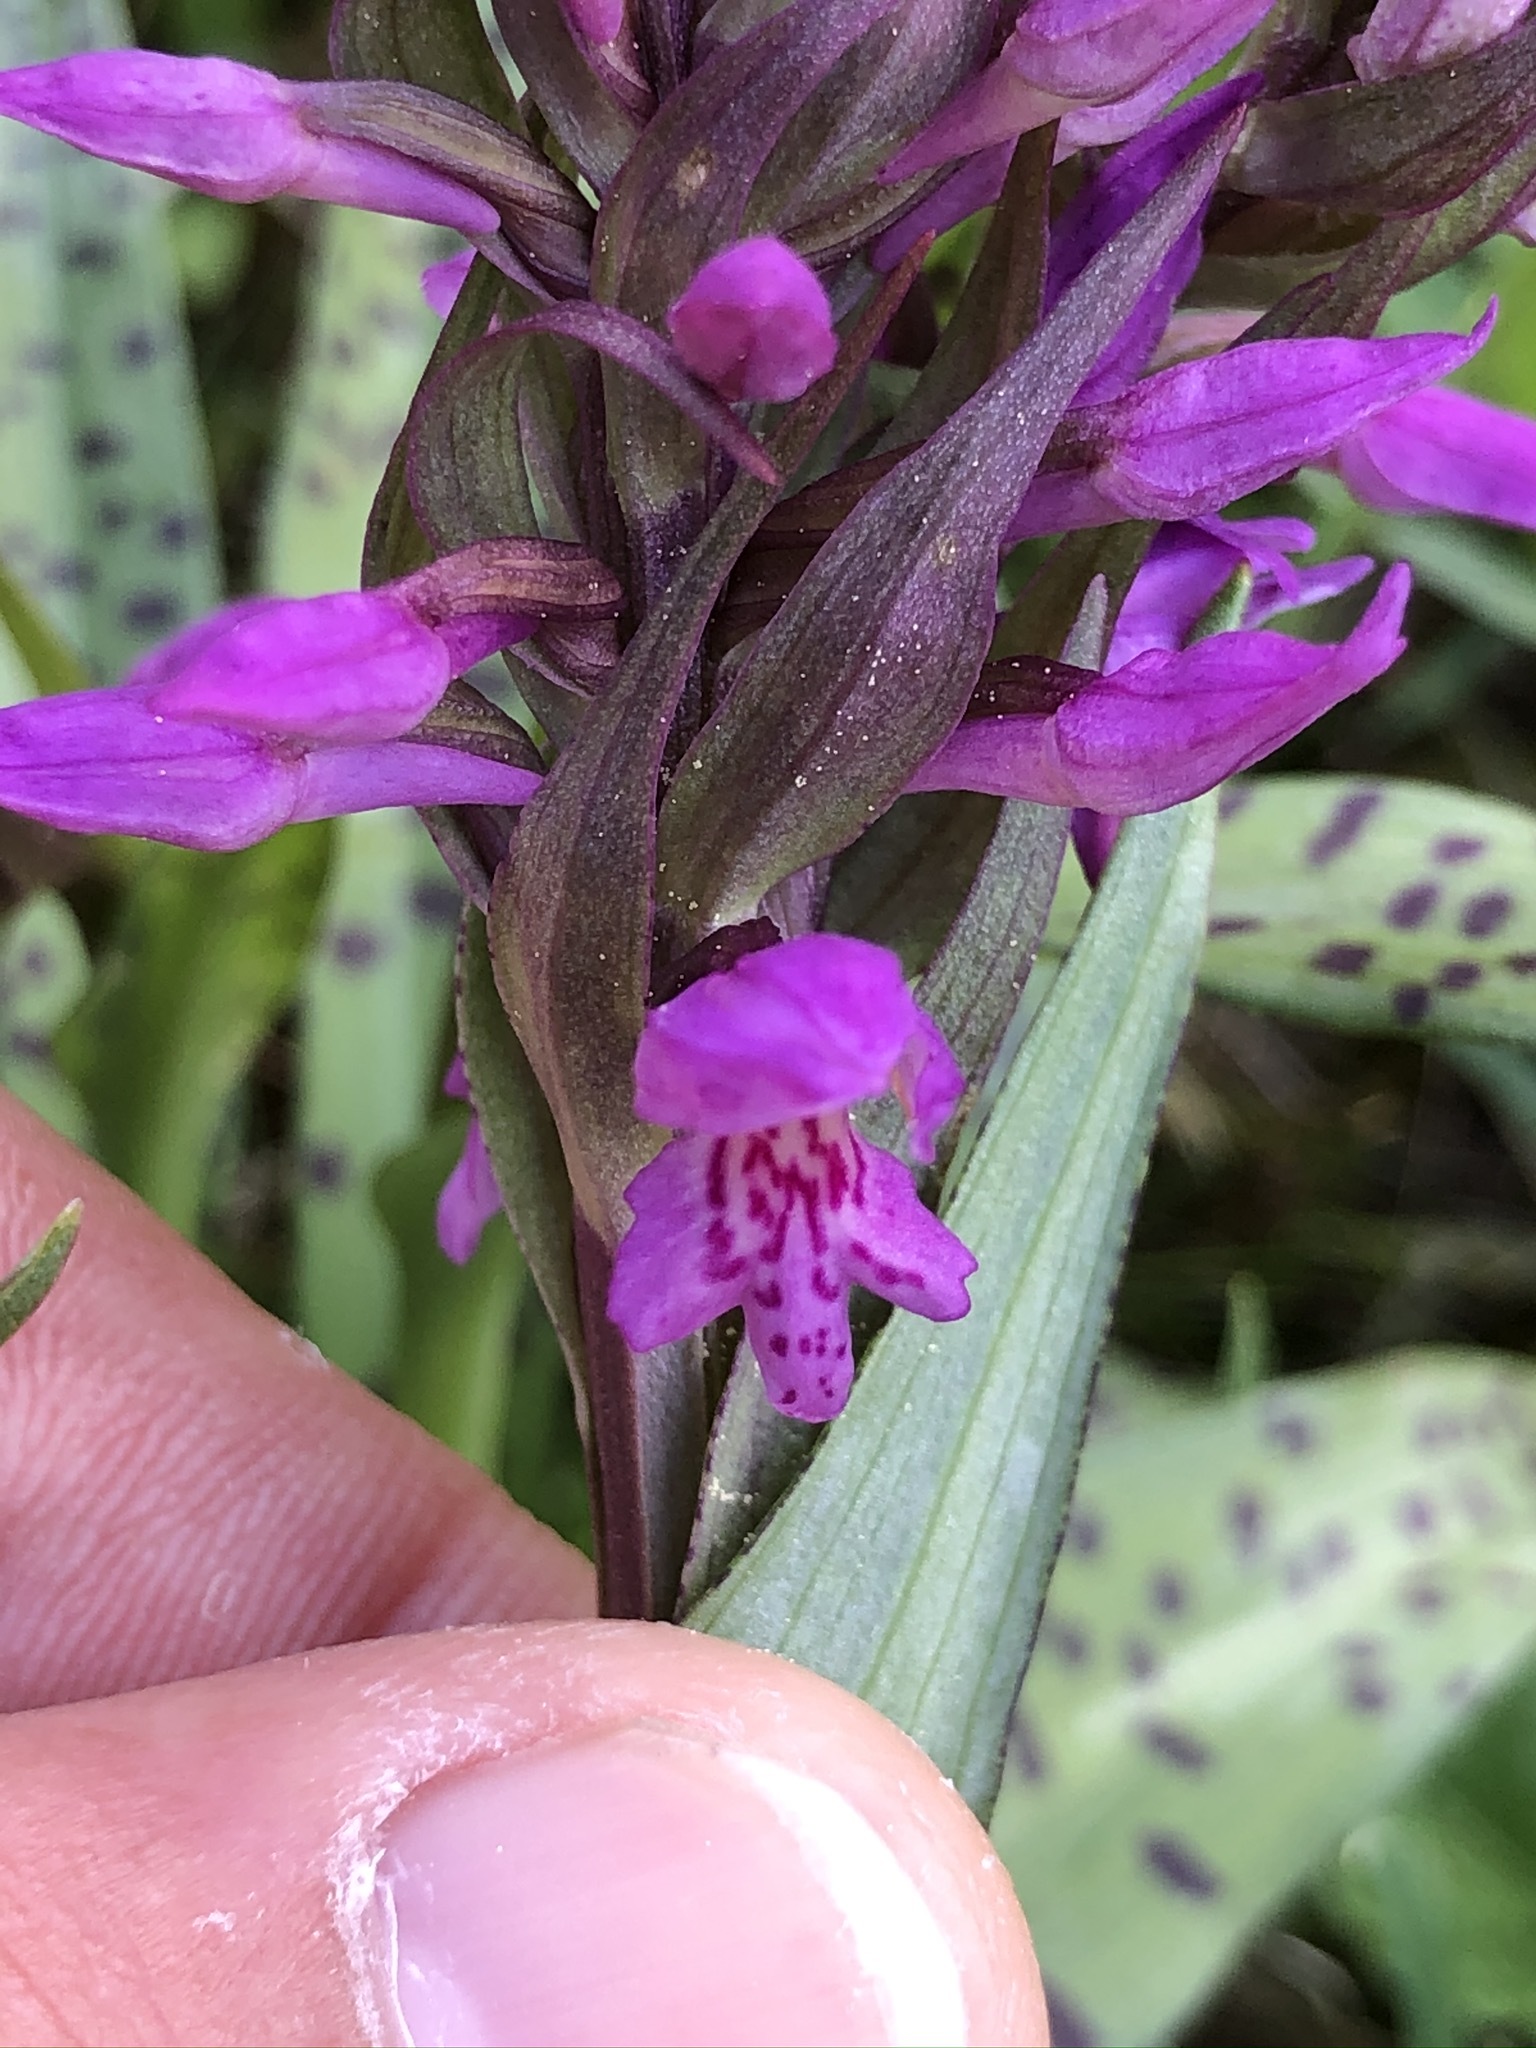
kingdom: Plantae
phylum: Tracheophyta
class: Liliopsida
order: Asparagales
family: Orchidaceae
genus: Dactylorhiza
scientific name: Dactylorhiza majalis
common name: Marsh orchid
